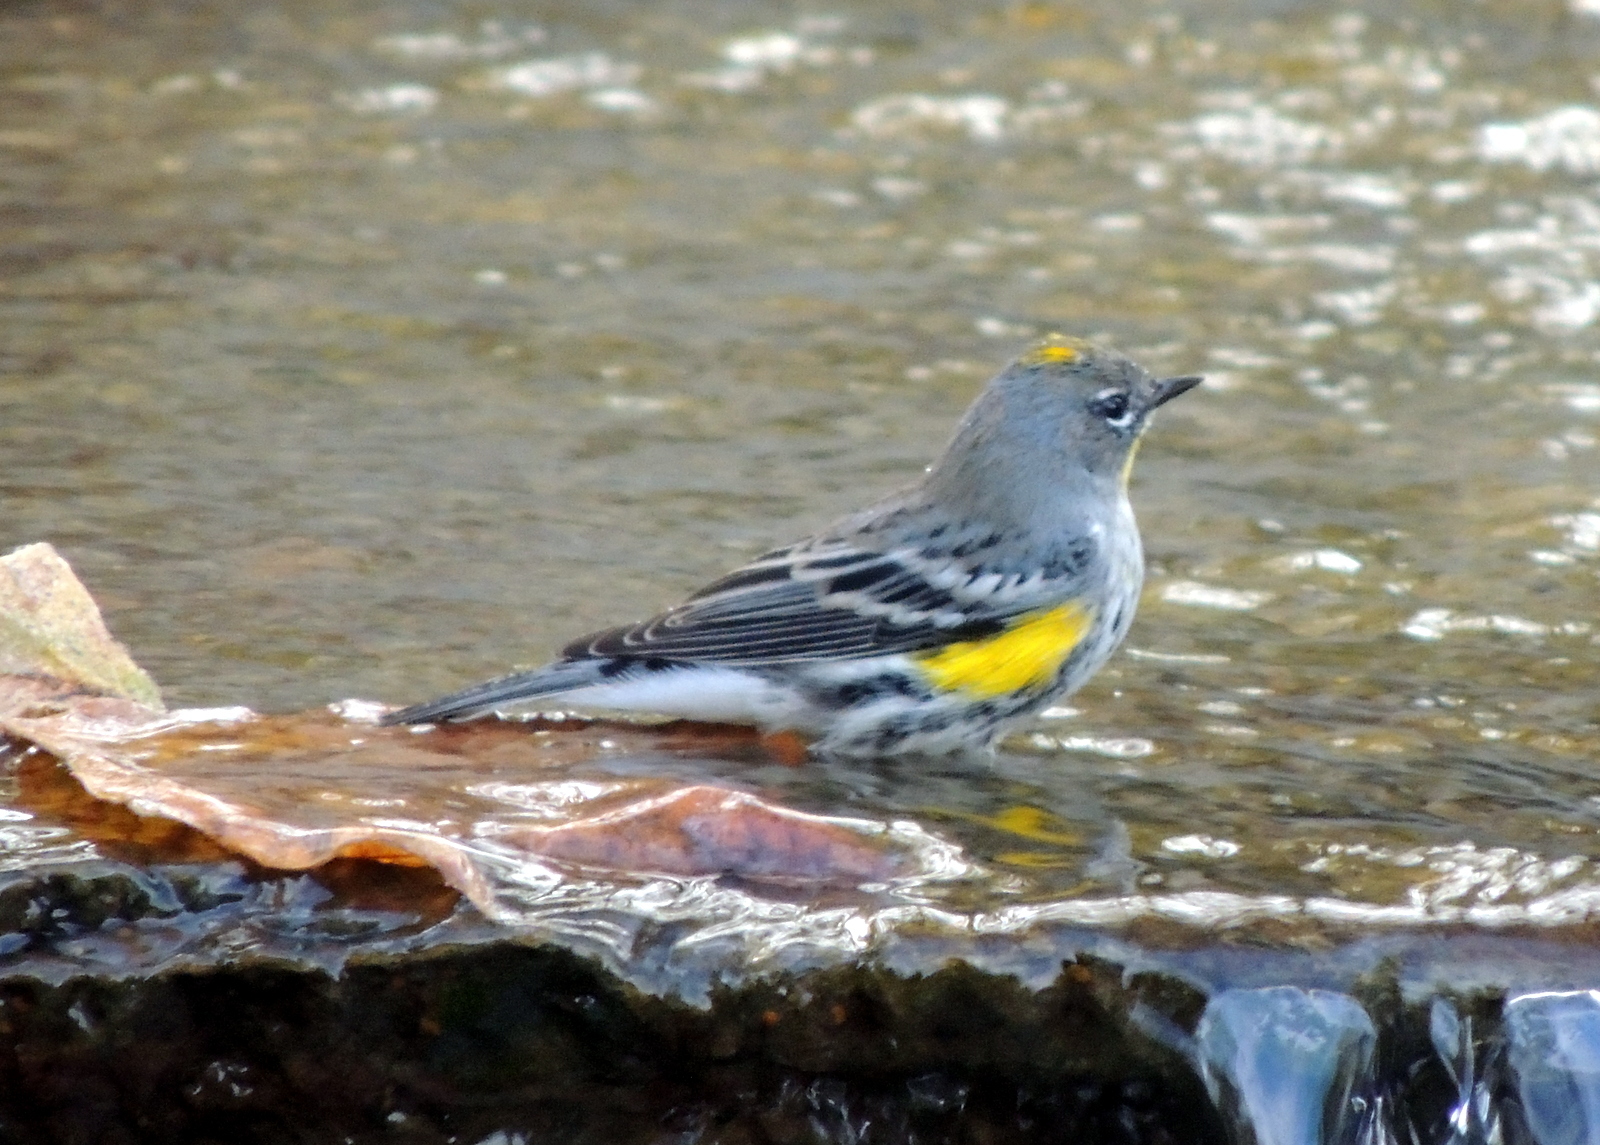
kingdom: Animalia
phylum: Chordata
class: Aves
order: Passeriformes
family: Parulidae
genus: Setophaga
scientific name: Setophaga coronata
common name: Myrtle warbler
